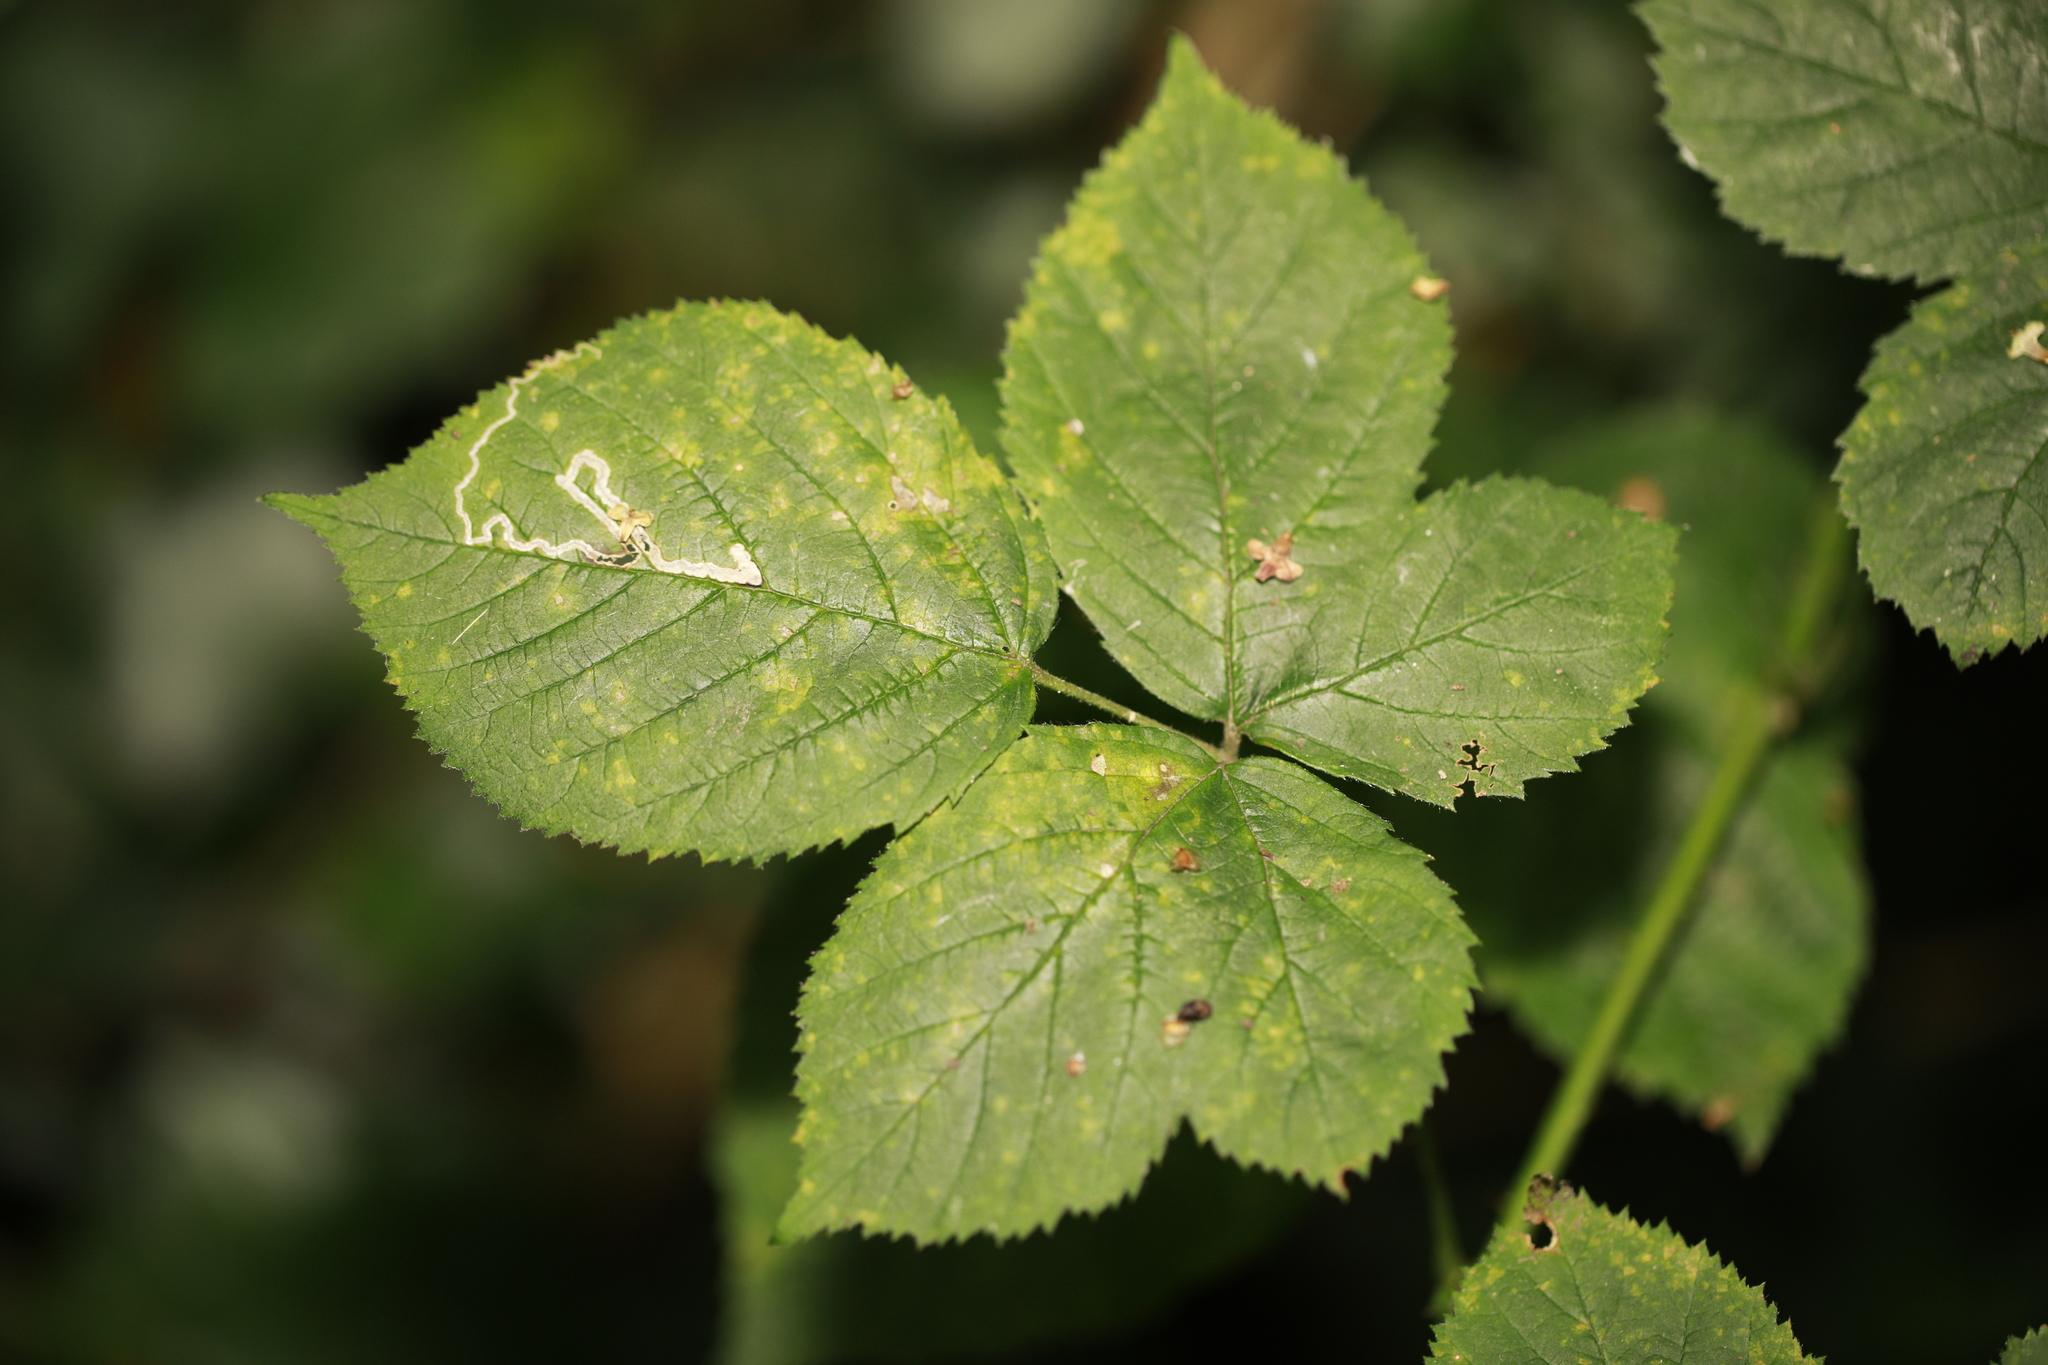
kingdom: Animalia
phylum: Arthropoda
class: Insecta
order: Lepidoptera
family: Nepticulidae
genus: Stigmella
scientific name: Stigmella aurella
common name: Golden pigmy
